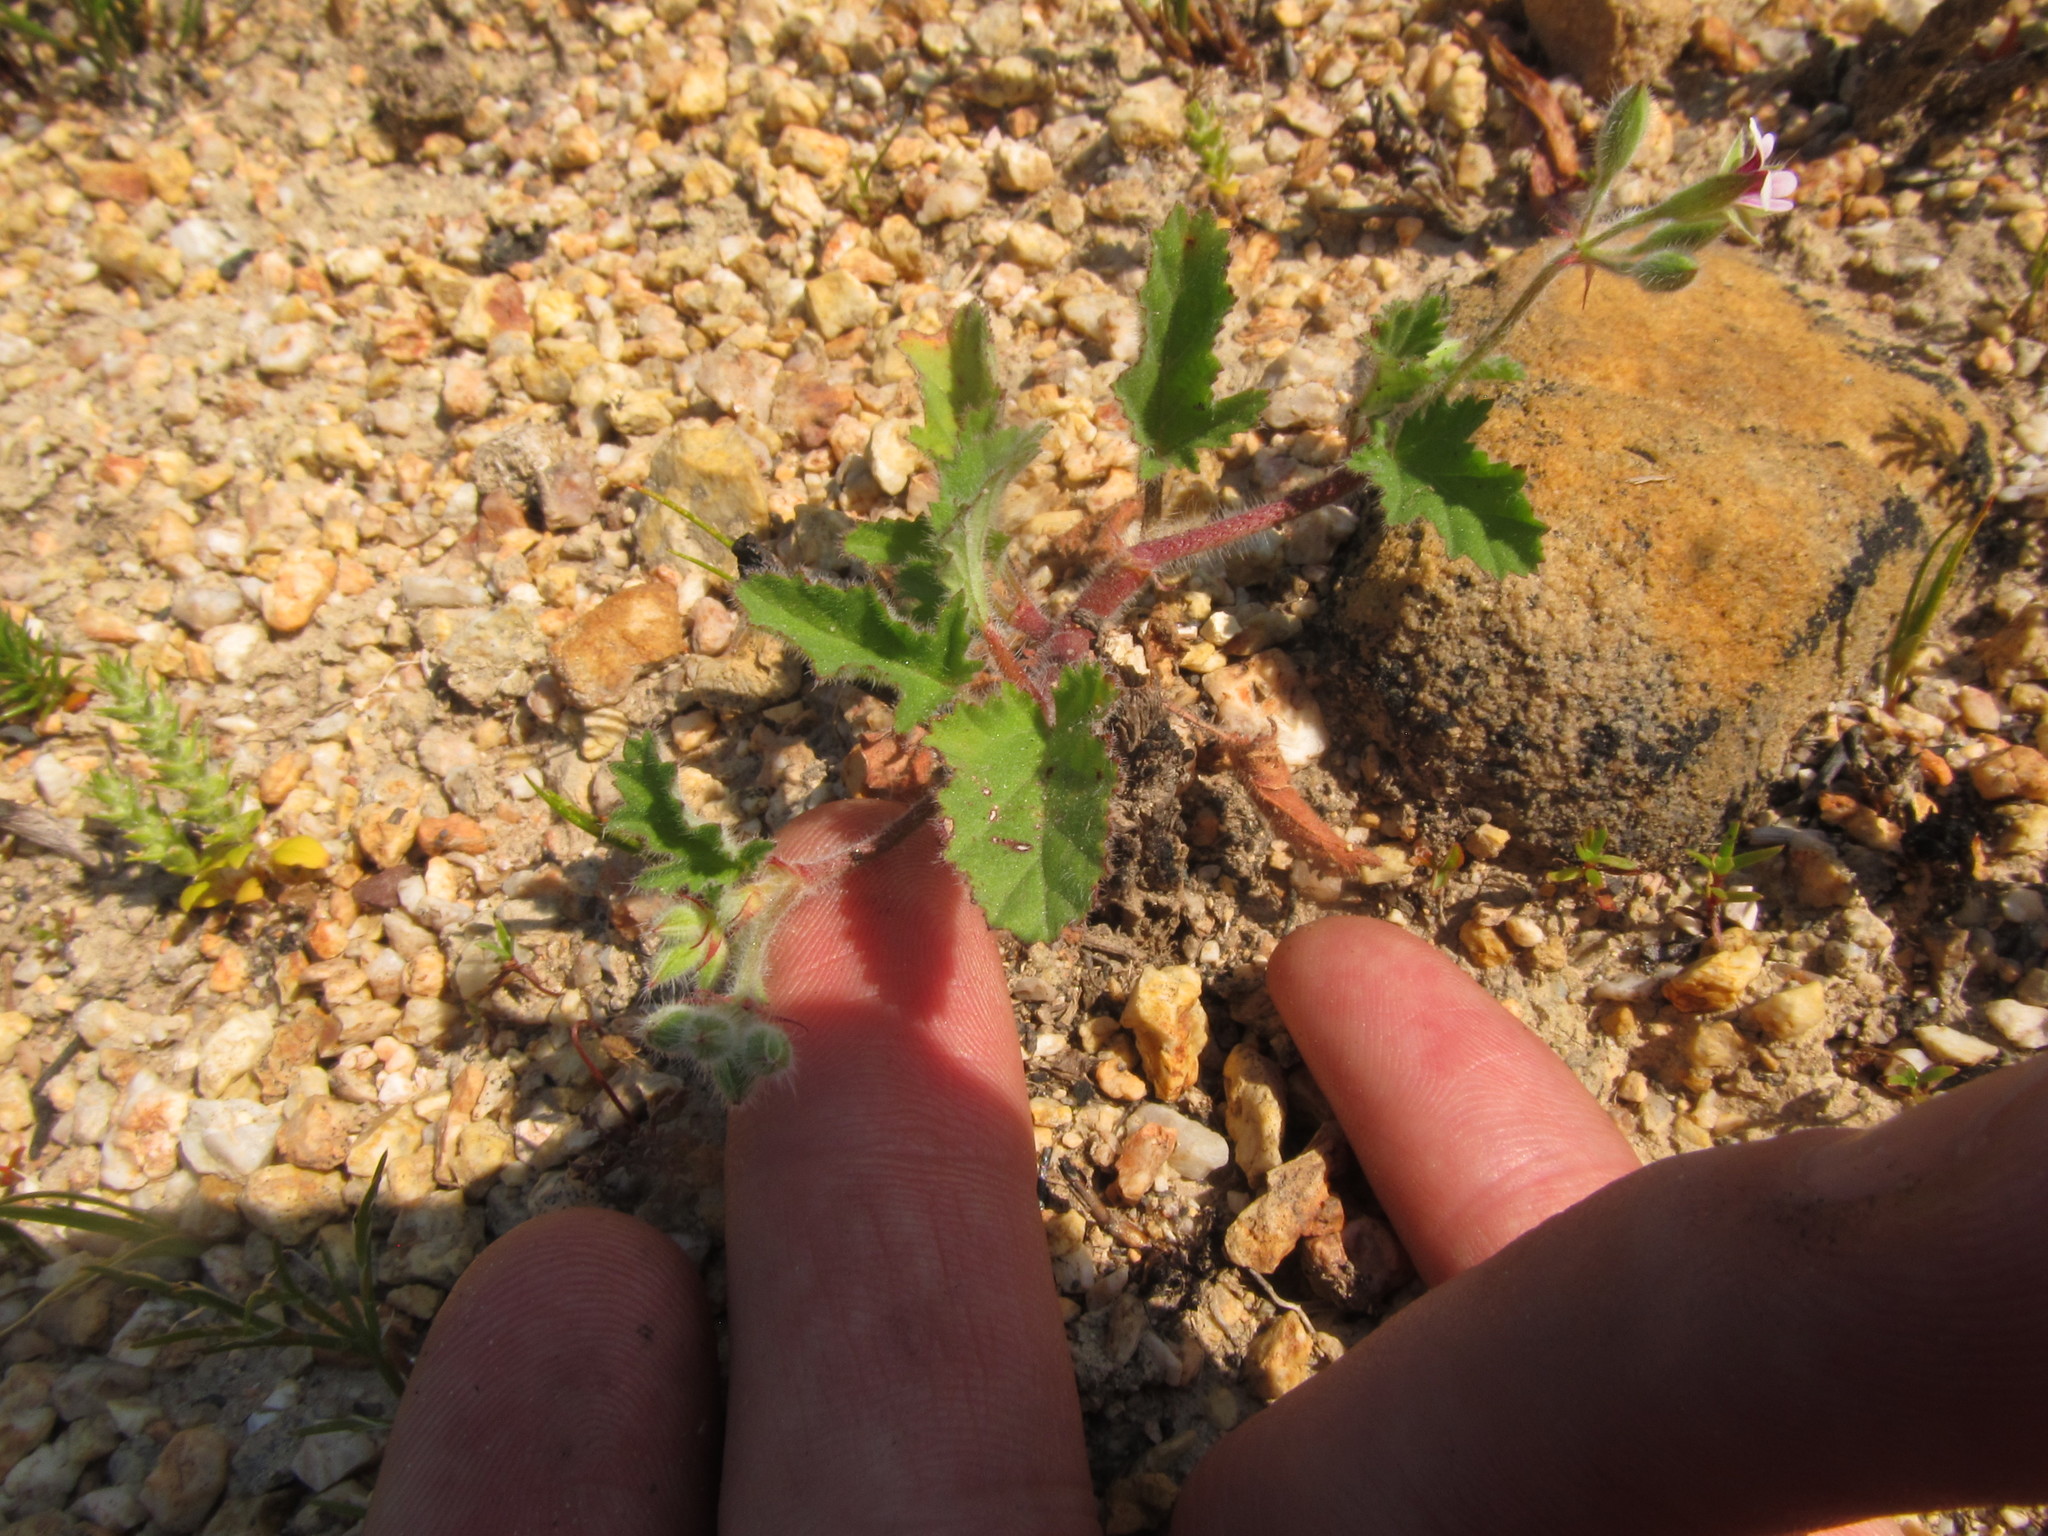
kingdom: Plantae
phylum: Tracheophyta
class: Magnoliopsida
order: Geraniales
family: Geraniaceae
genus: Pelargonium
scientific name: Pelargonium althaeoides
